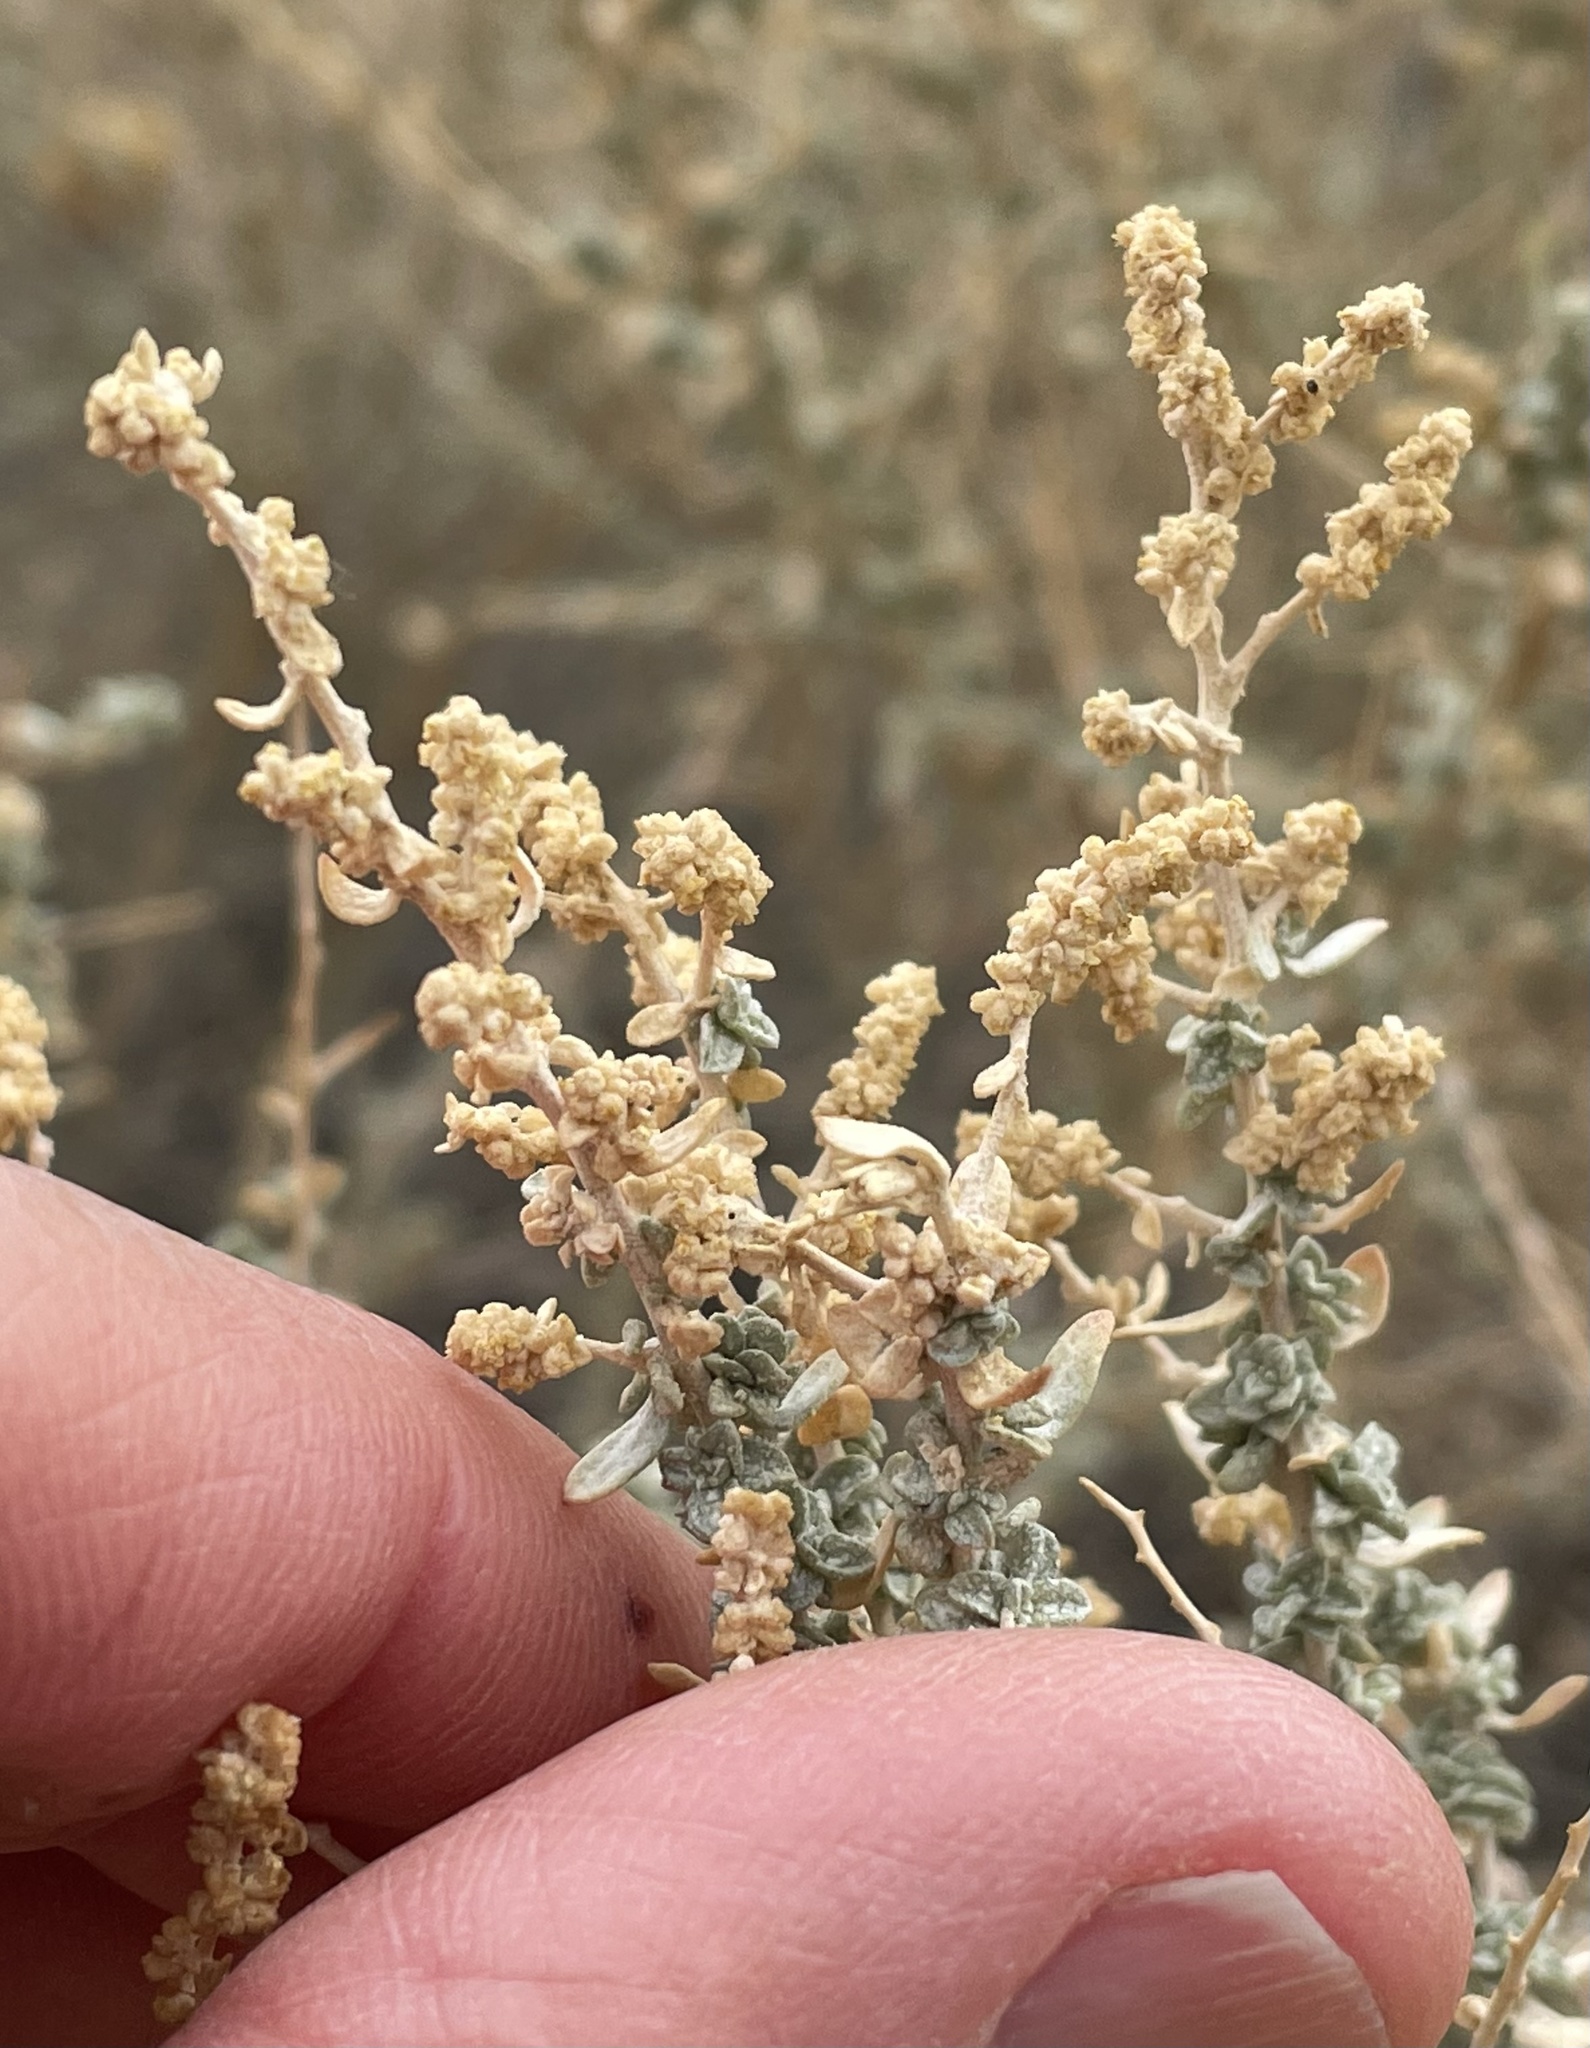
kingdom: Plantae
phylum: Tracheophyta
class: Magnoliopsida
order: Caryophyllales
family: Amaranthaceae
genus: Atriplex
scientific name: Atriplex polycarpa
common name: Desert saltbush
